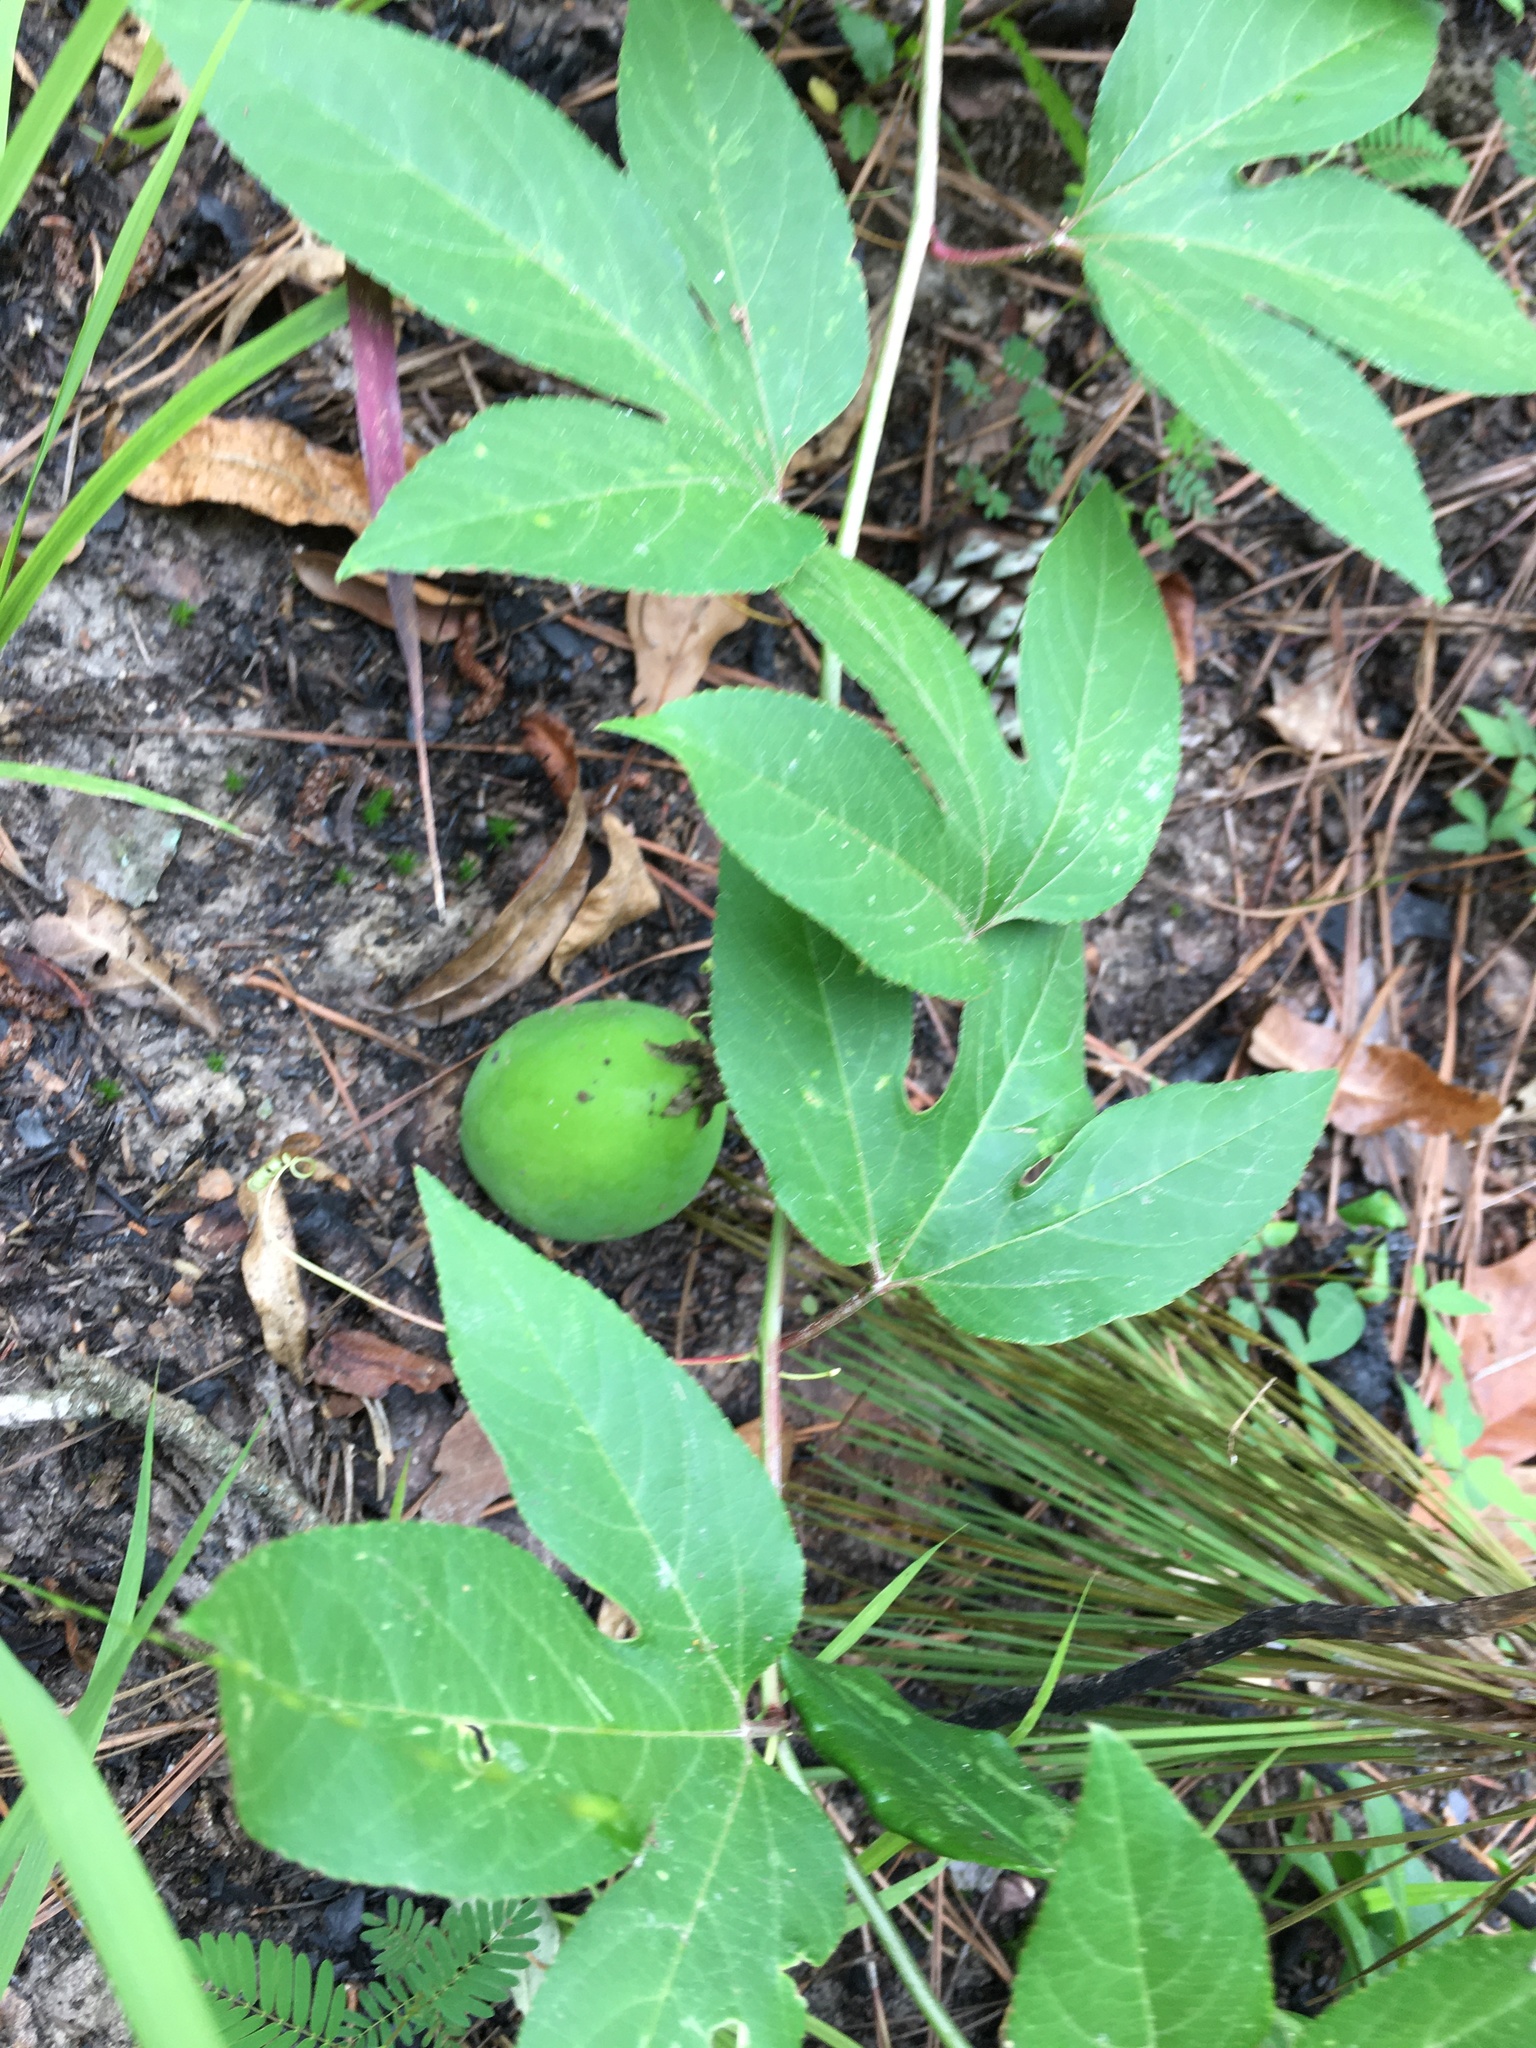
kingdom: Plantae
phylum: Tracheophyta
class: Magnoliopsida
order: Malpighiales
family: Passifloraceae
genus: Passiflora
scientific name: Passiflora incarnata
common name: Apricot-vine
